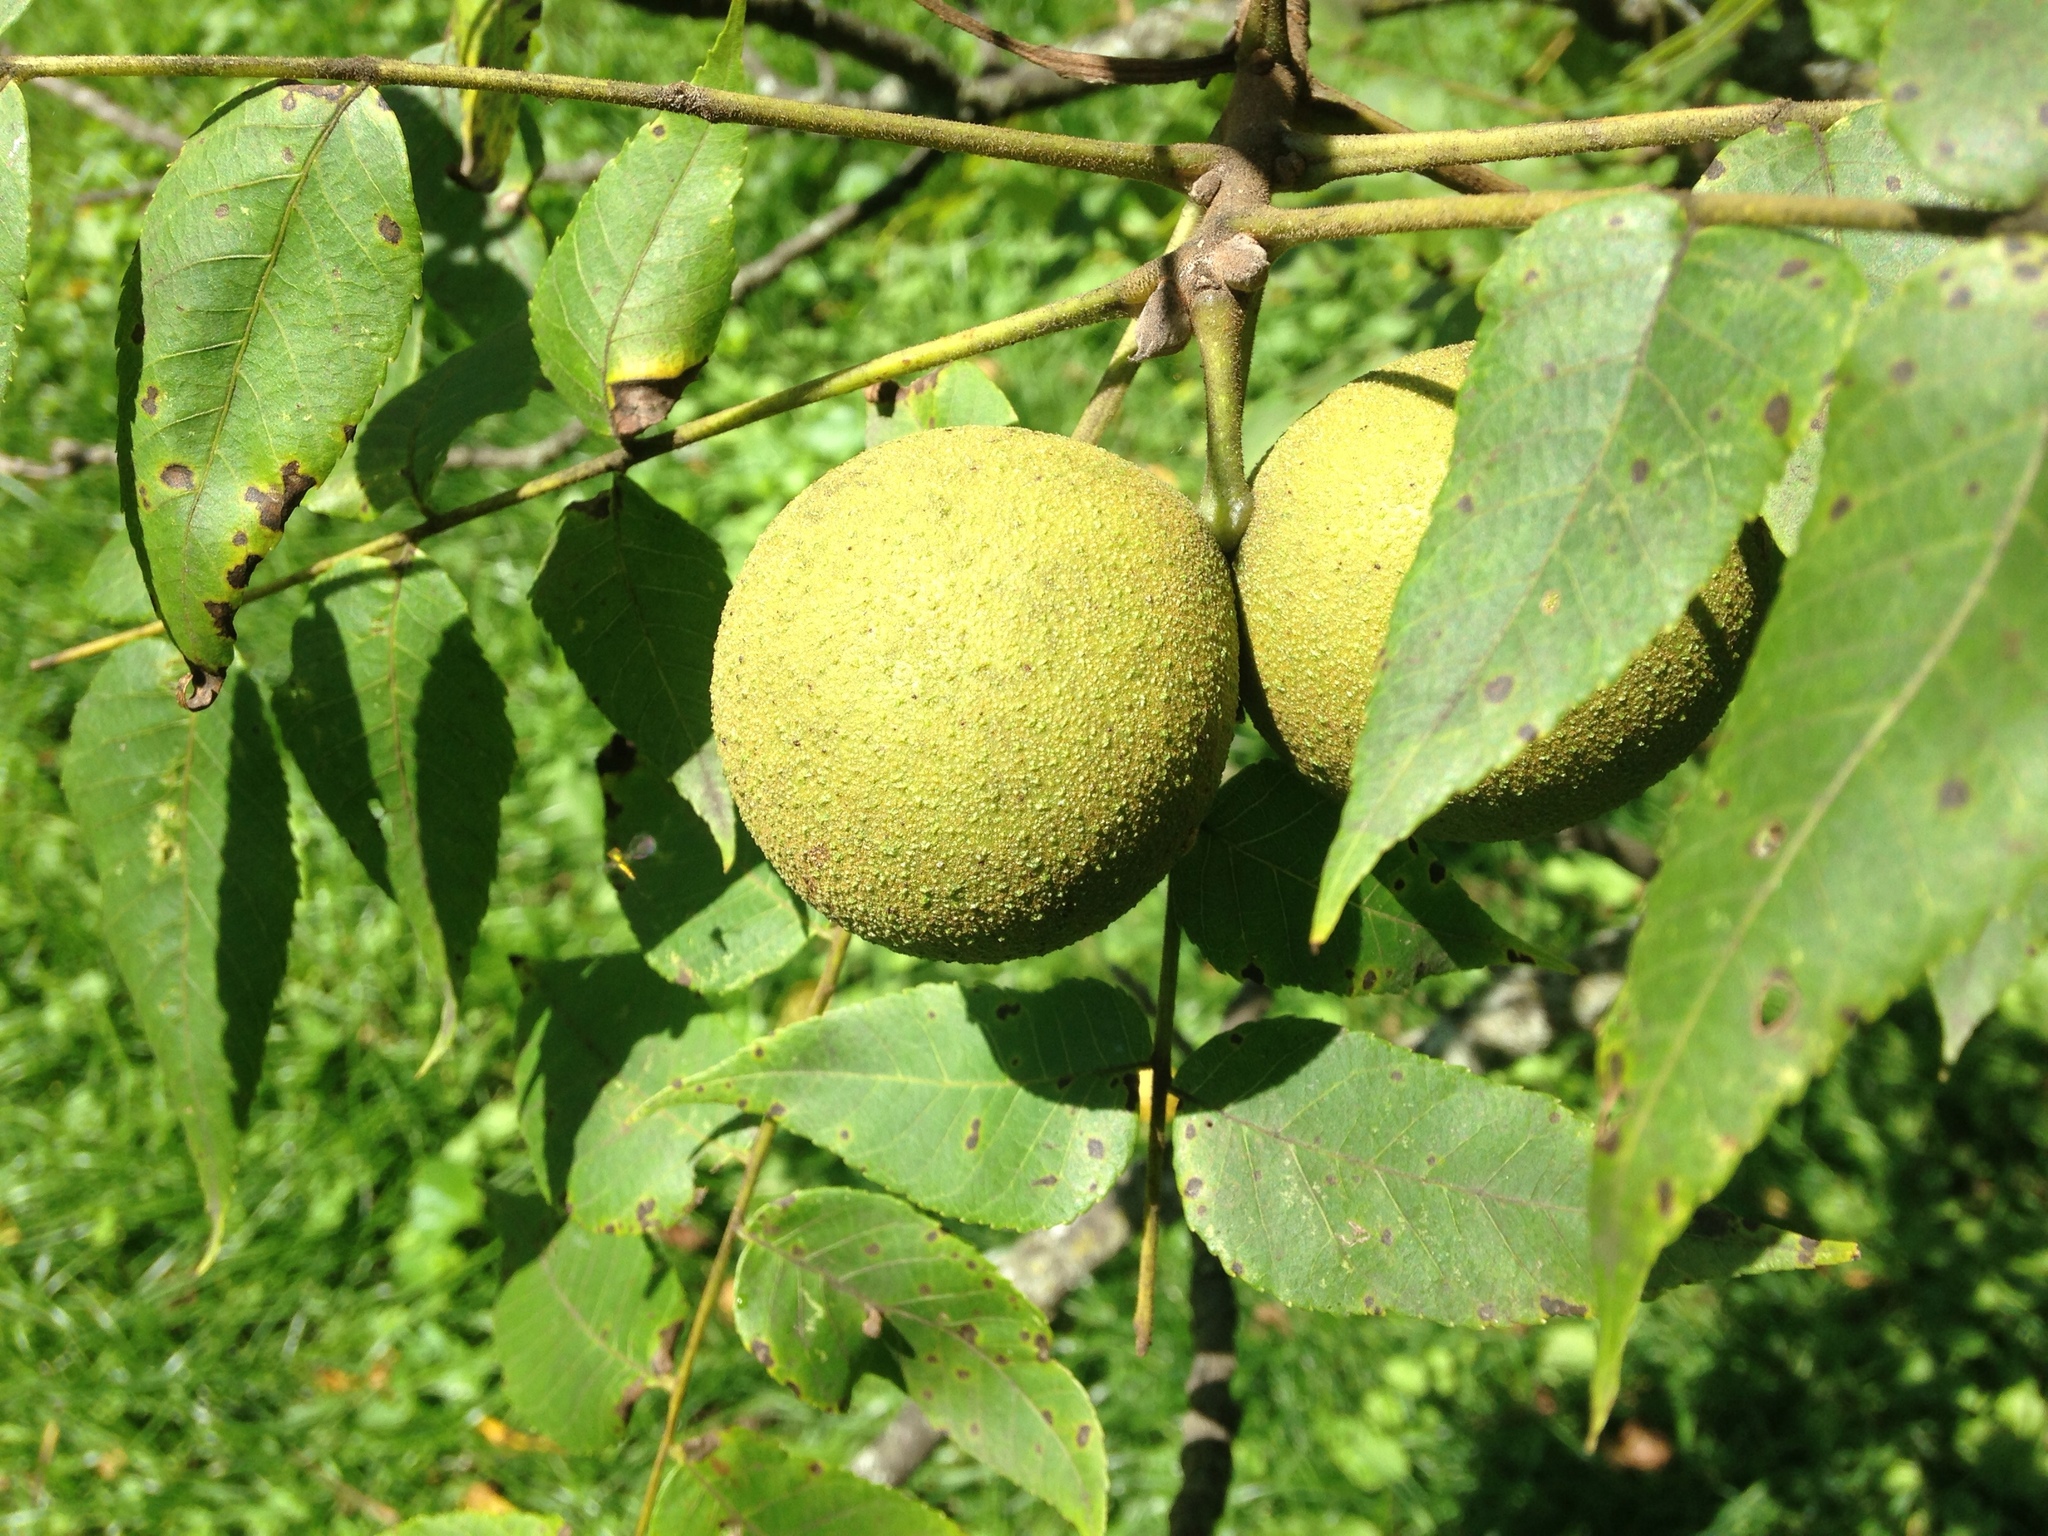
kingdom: Plantae
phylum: Tracheophyta
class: Magnoliopsida
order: Fagales
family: Juglandaceae
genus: Juglans
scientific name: Juglans nigra
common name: Black walnut
